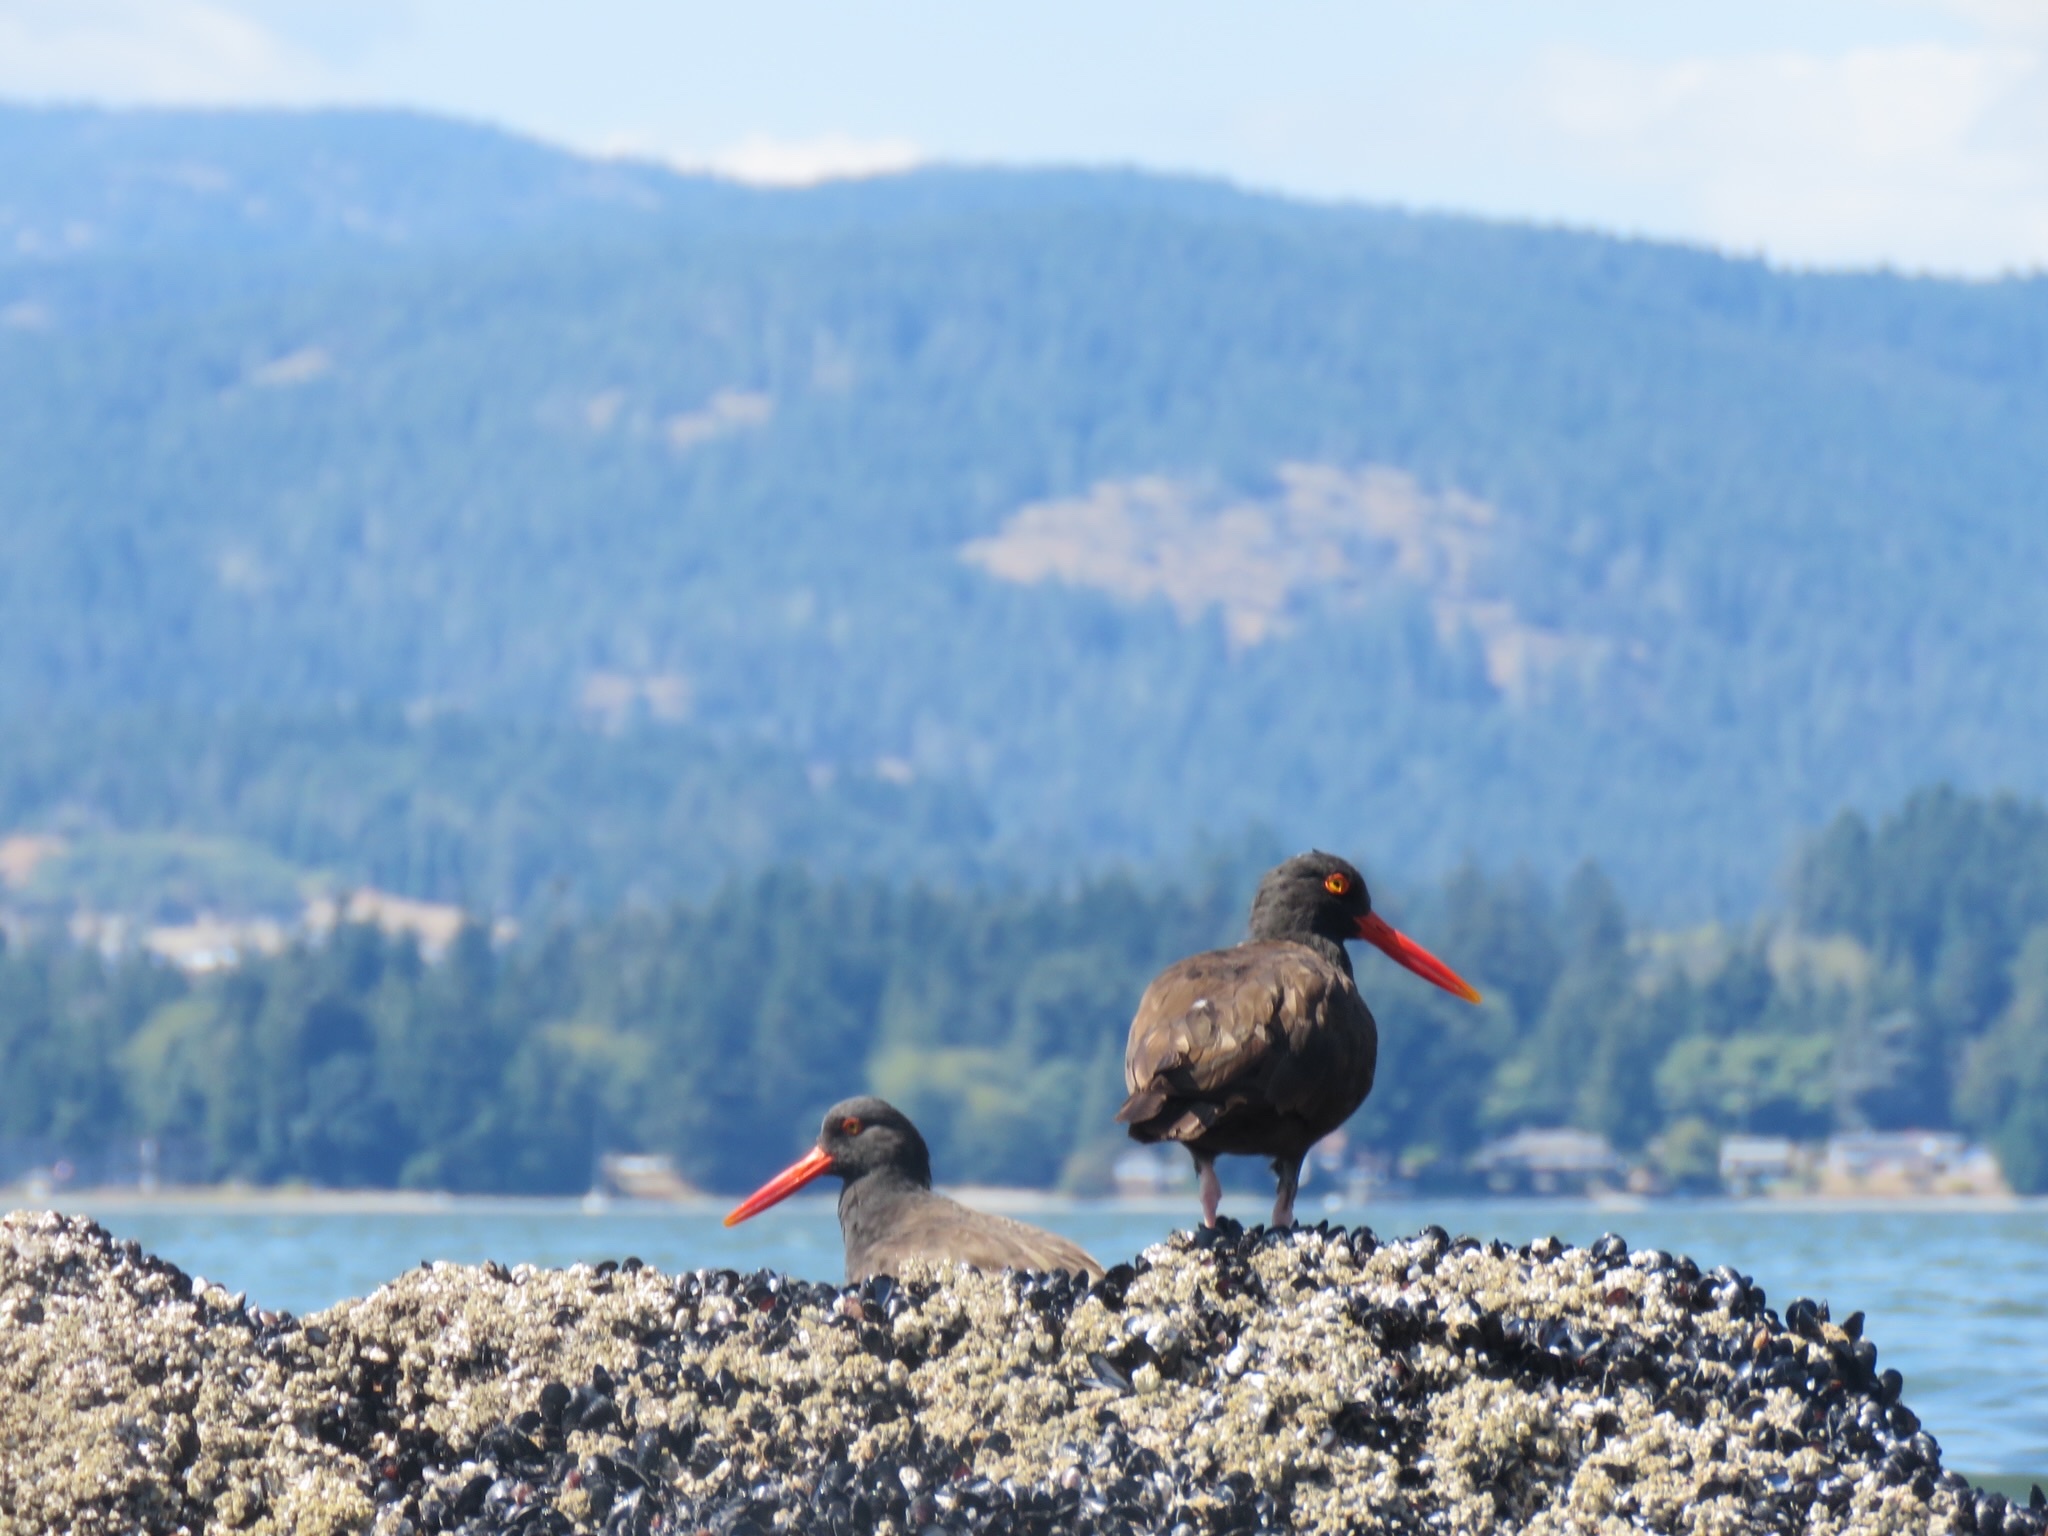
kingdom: Animalia
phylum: Chordata
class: Aves
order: Charadriiformes
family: Haematopodidae
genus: Haematopus
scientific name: Haematopus bachmani
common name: Black oystercatcher
